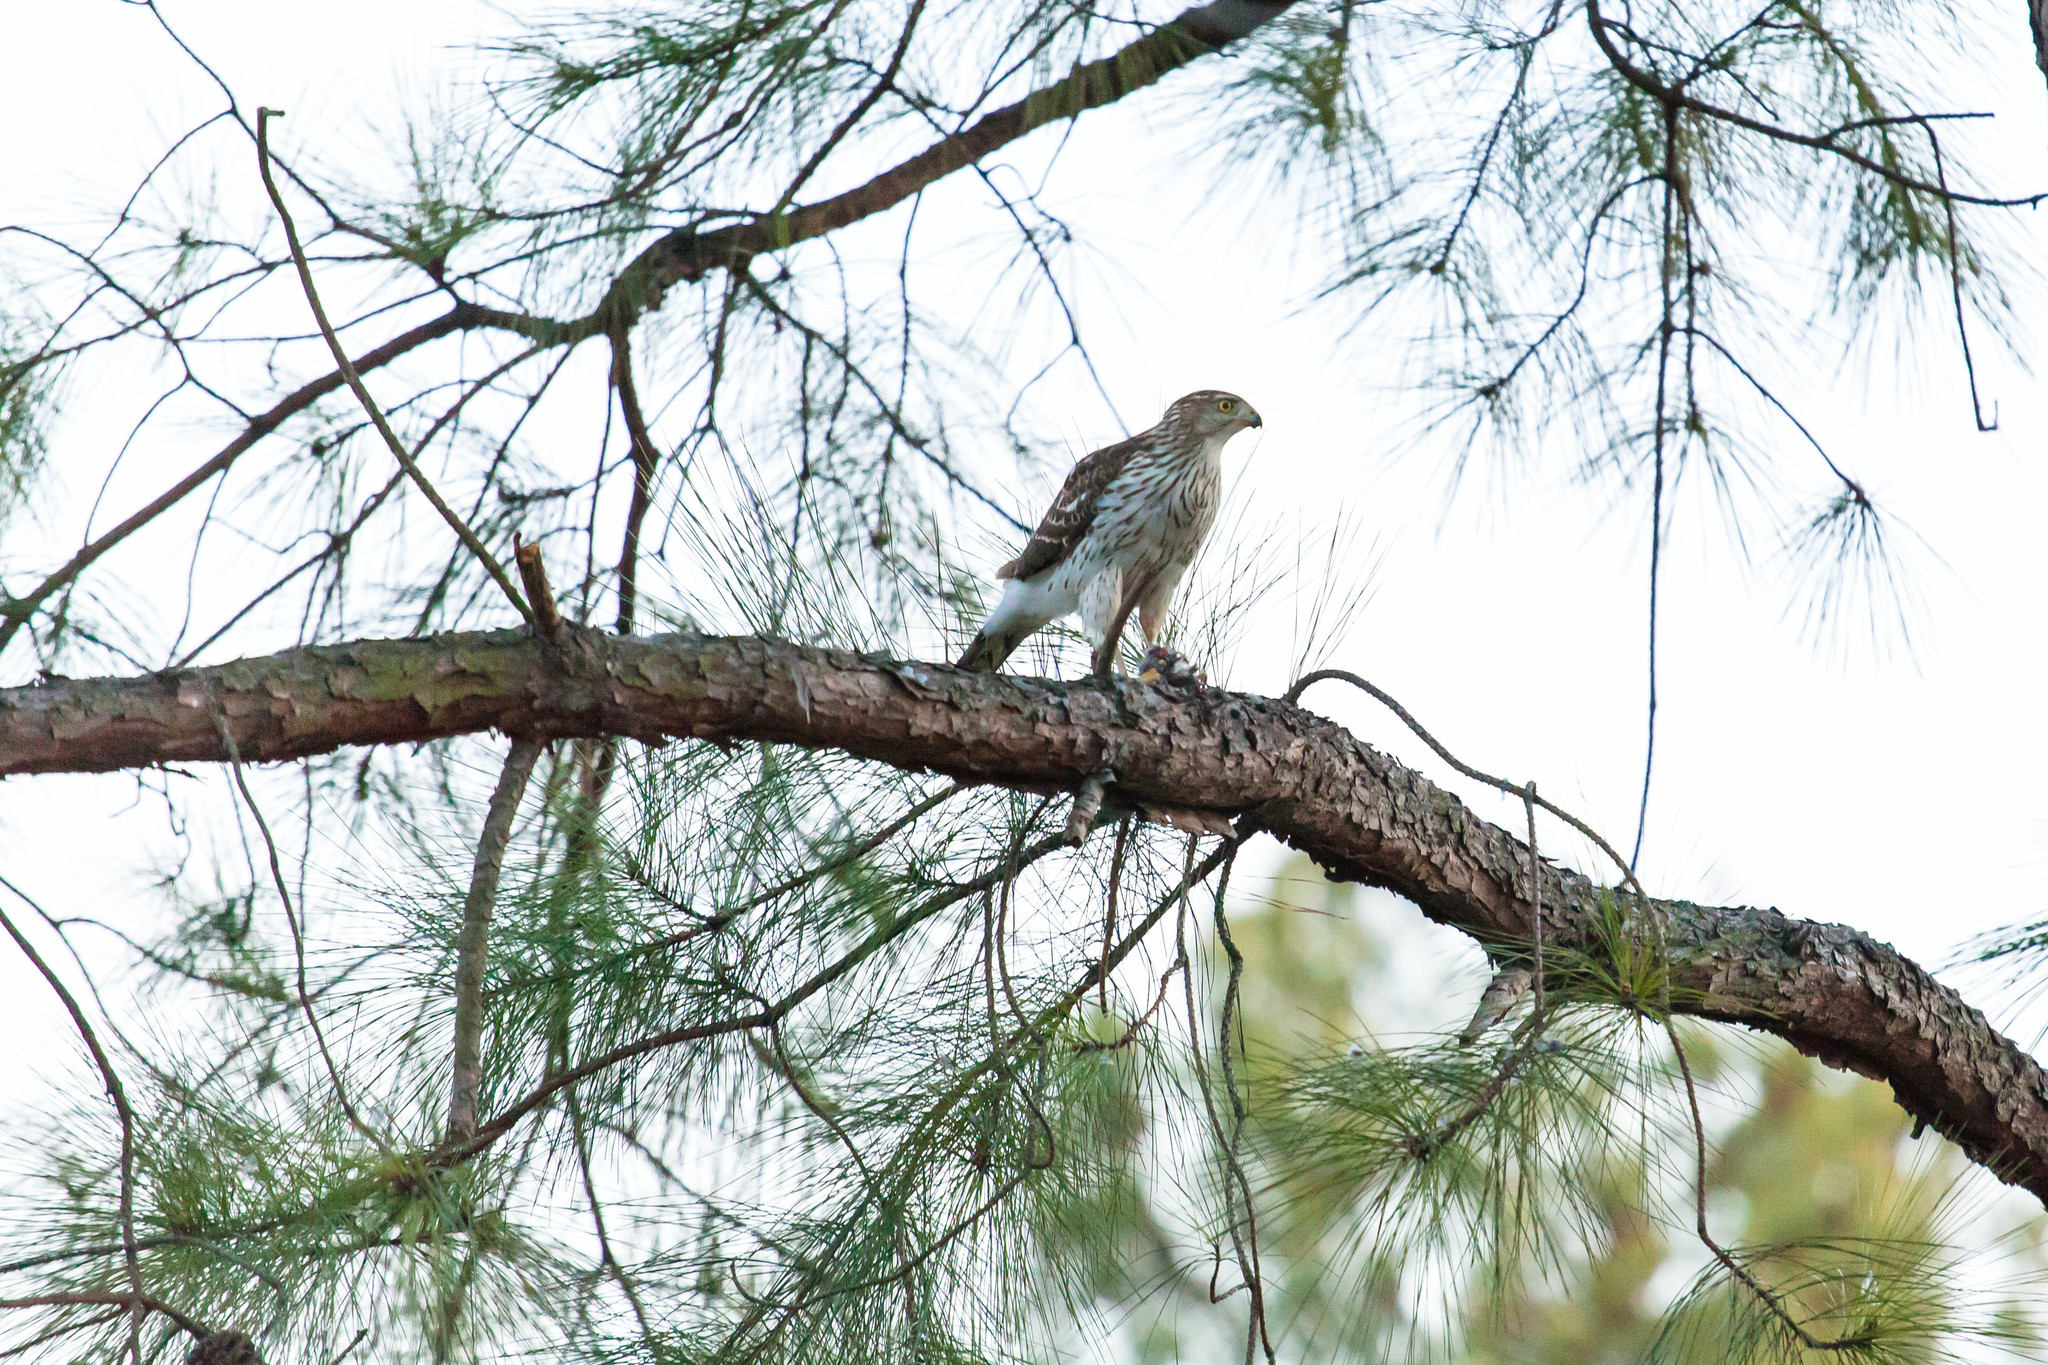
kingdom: Animalia
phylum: Chordata
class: Aves
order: Accipitriformes
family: Accipitridae
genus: Accipiter
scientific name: Accipiter cooperii
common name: Cooper's hawk
